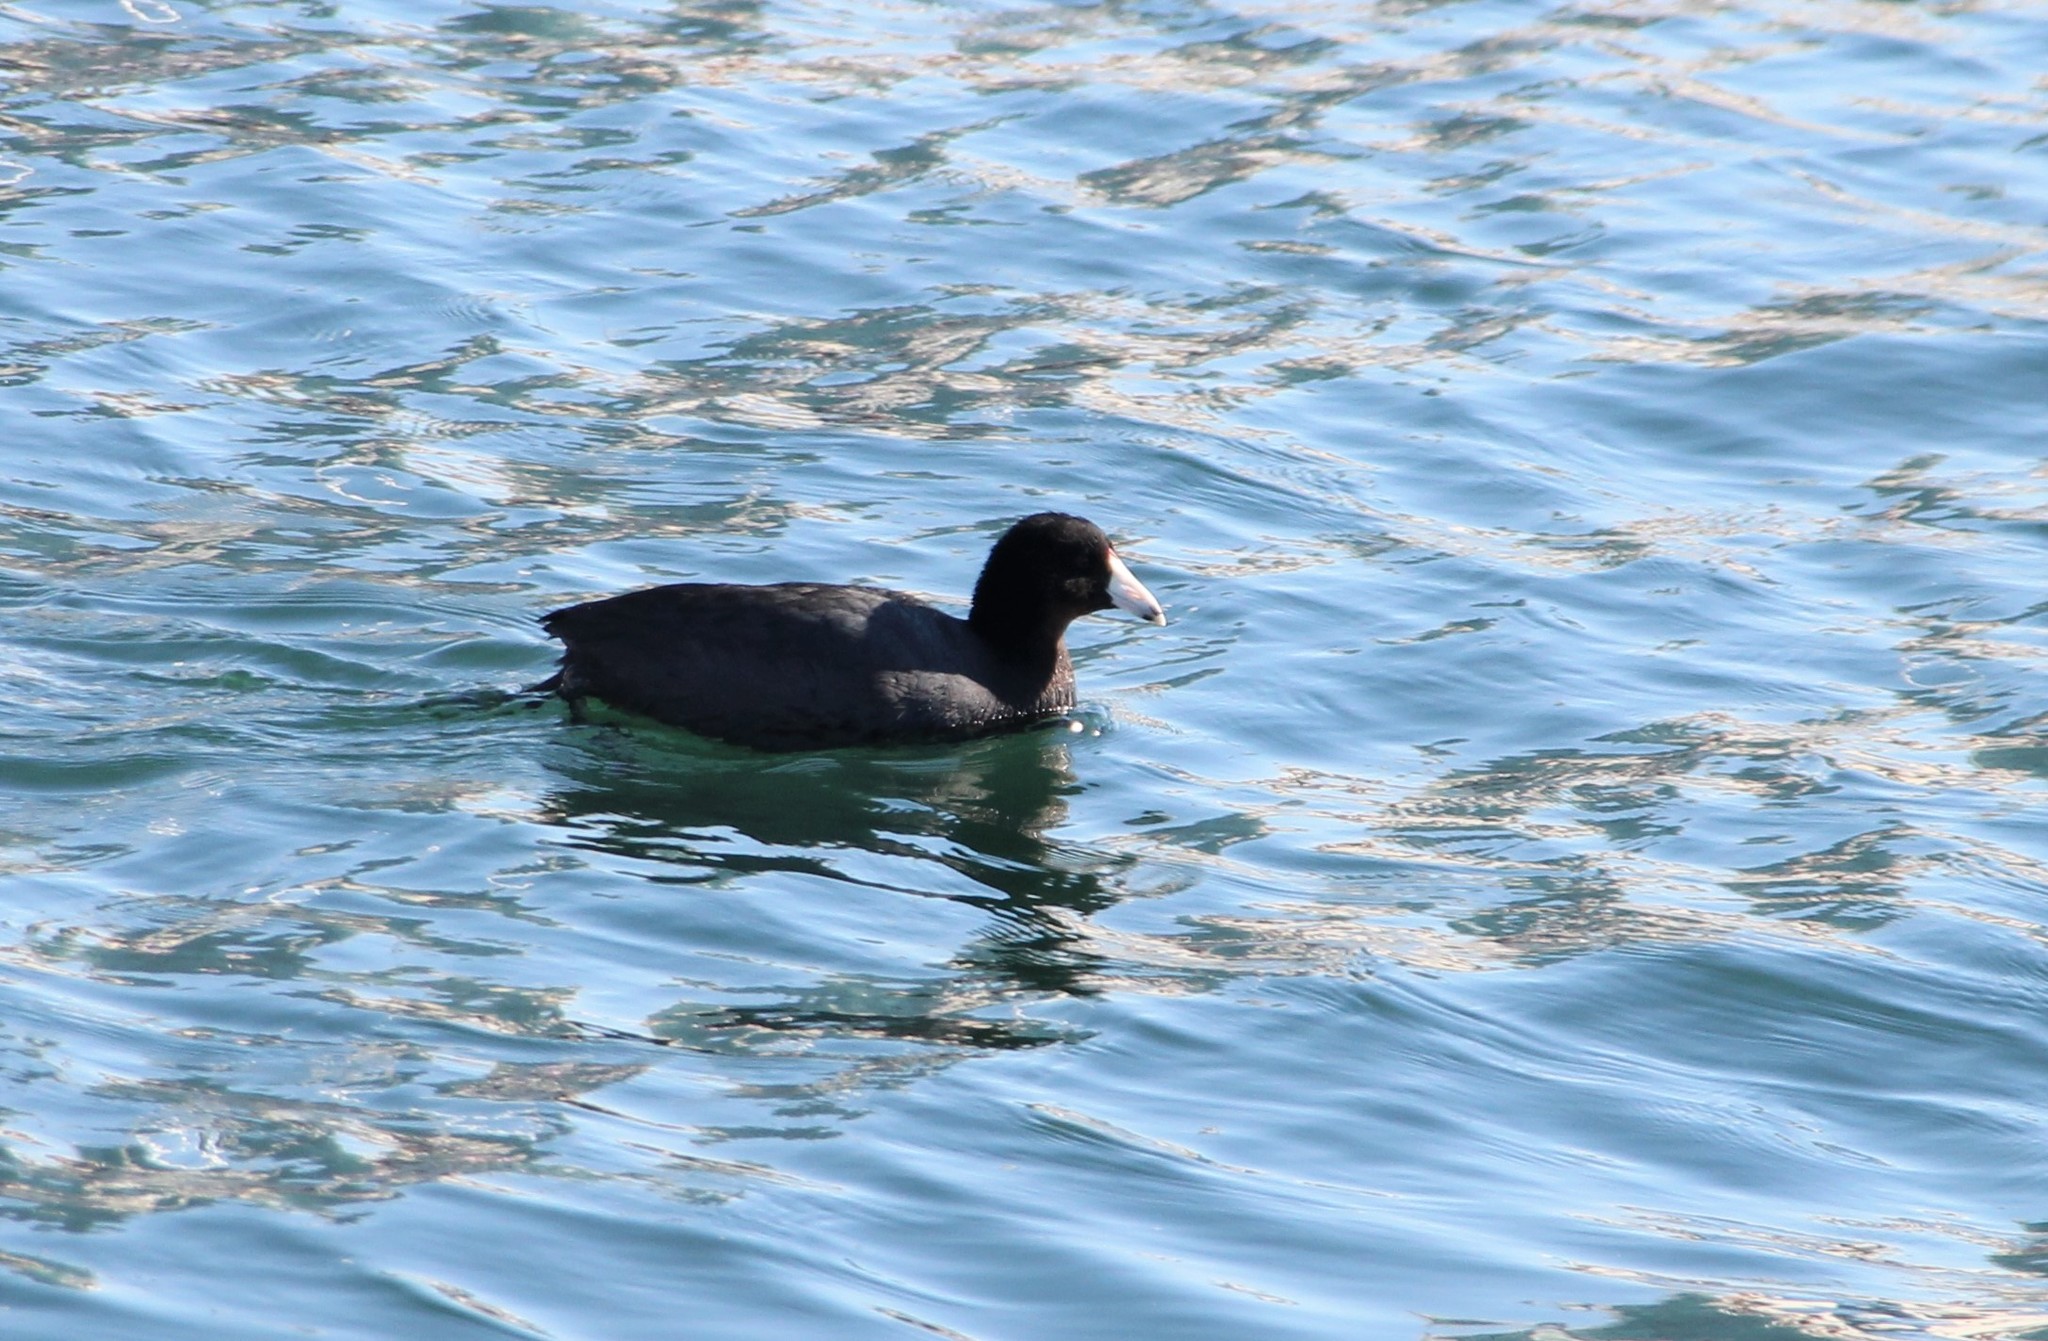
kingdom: Animalia
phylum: Chordata
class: Aves
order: Gruiformes
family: Rallidae
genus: Fulica
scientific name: Fulica americana
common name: American coot
